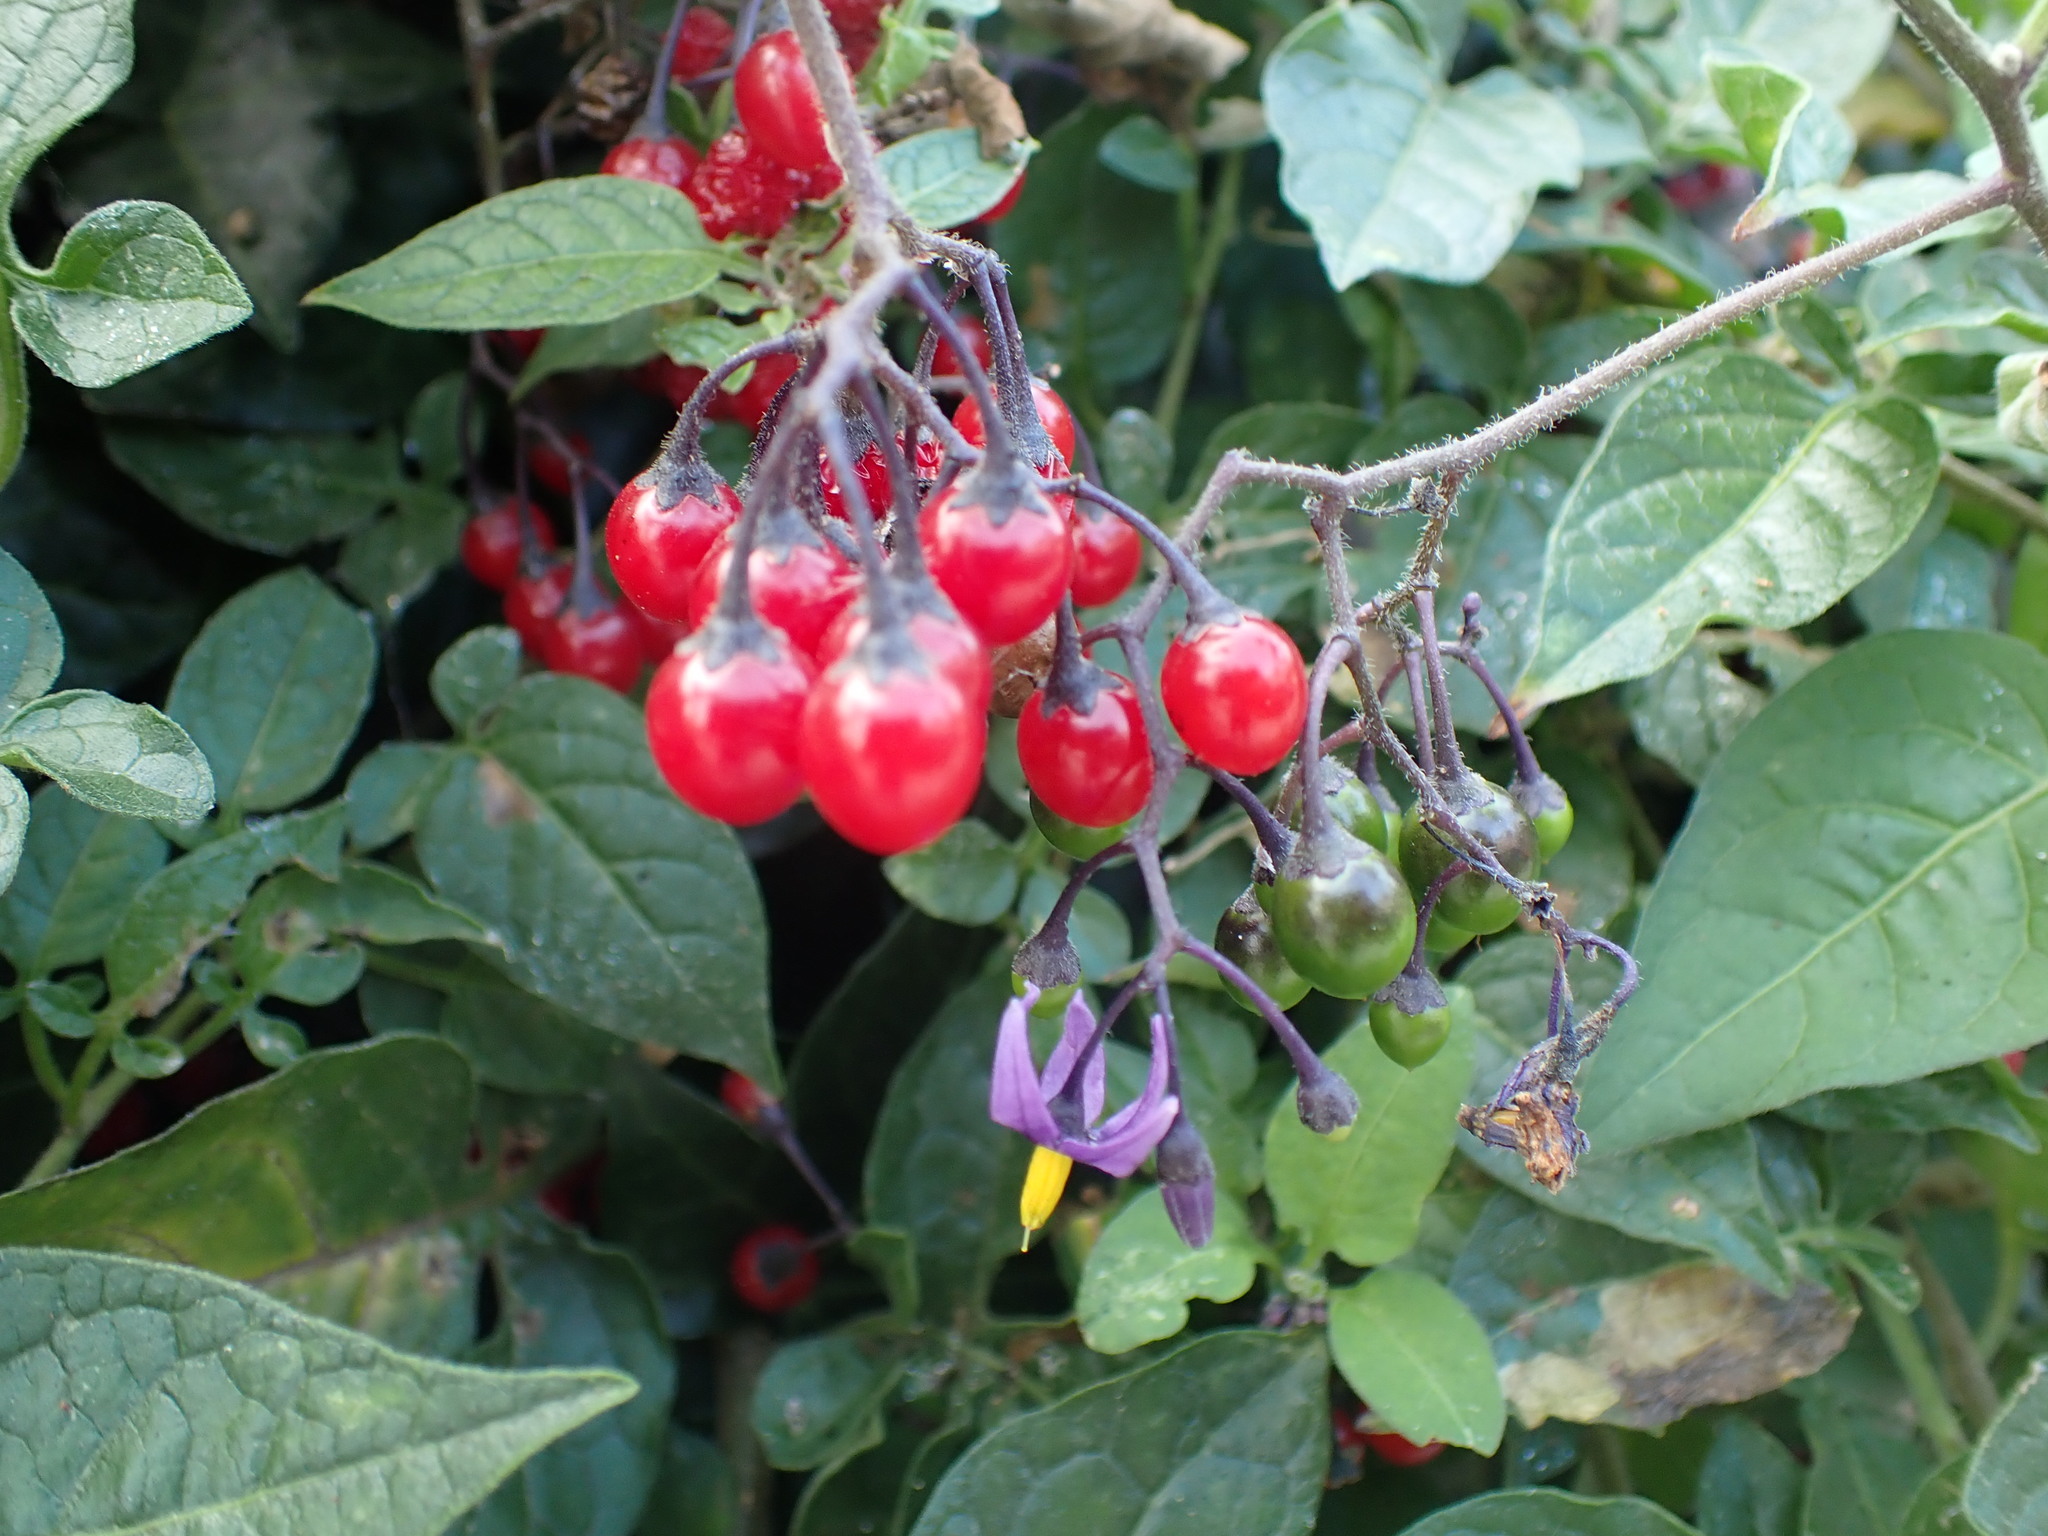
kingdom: Plantae
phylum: Tracheophyta
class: Magnoliopsida
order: Solanales
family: Solanaceae
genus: Solanum
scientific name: Solanum dulcamara
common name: Climbing nightshade
